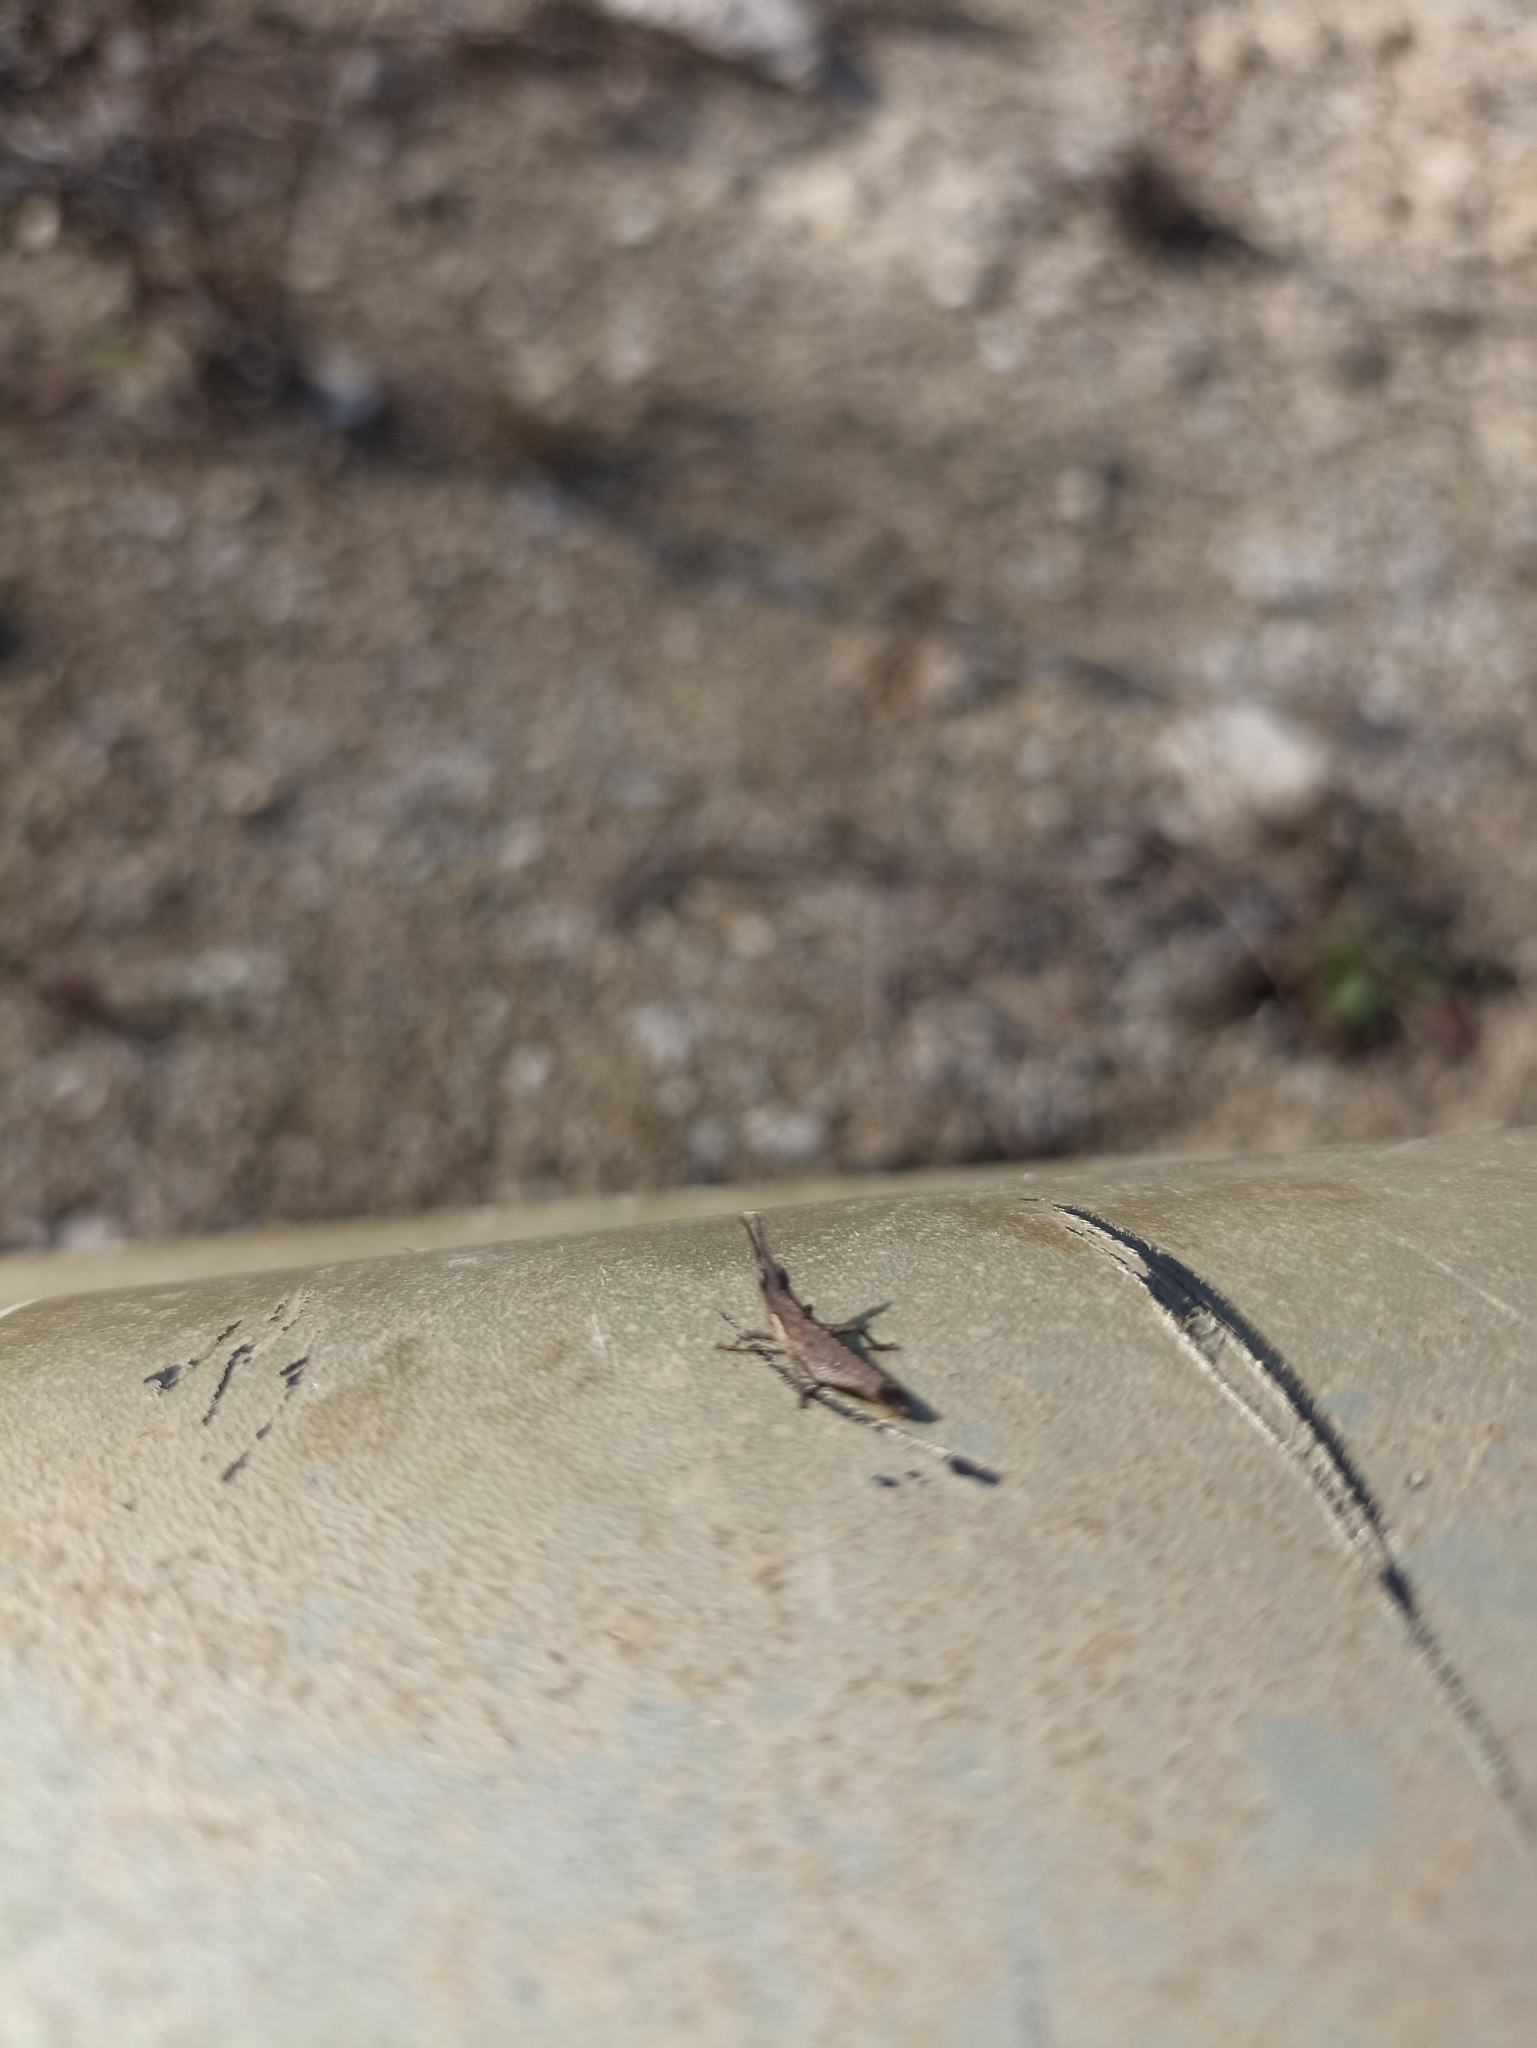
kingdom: Animalia
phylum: Arthropoda
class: Insecta
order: Orthoptera
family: Pyrgomorphidae
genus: Pyrgomorpha
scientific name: Pyrgomorpha conica
